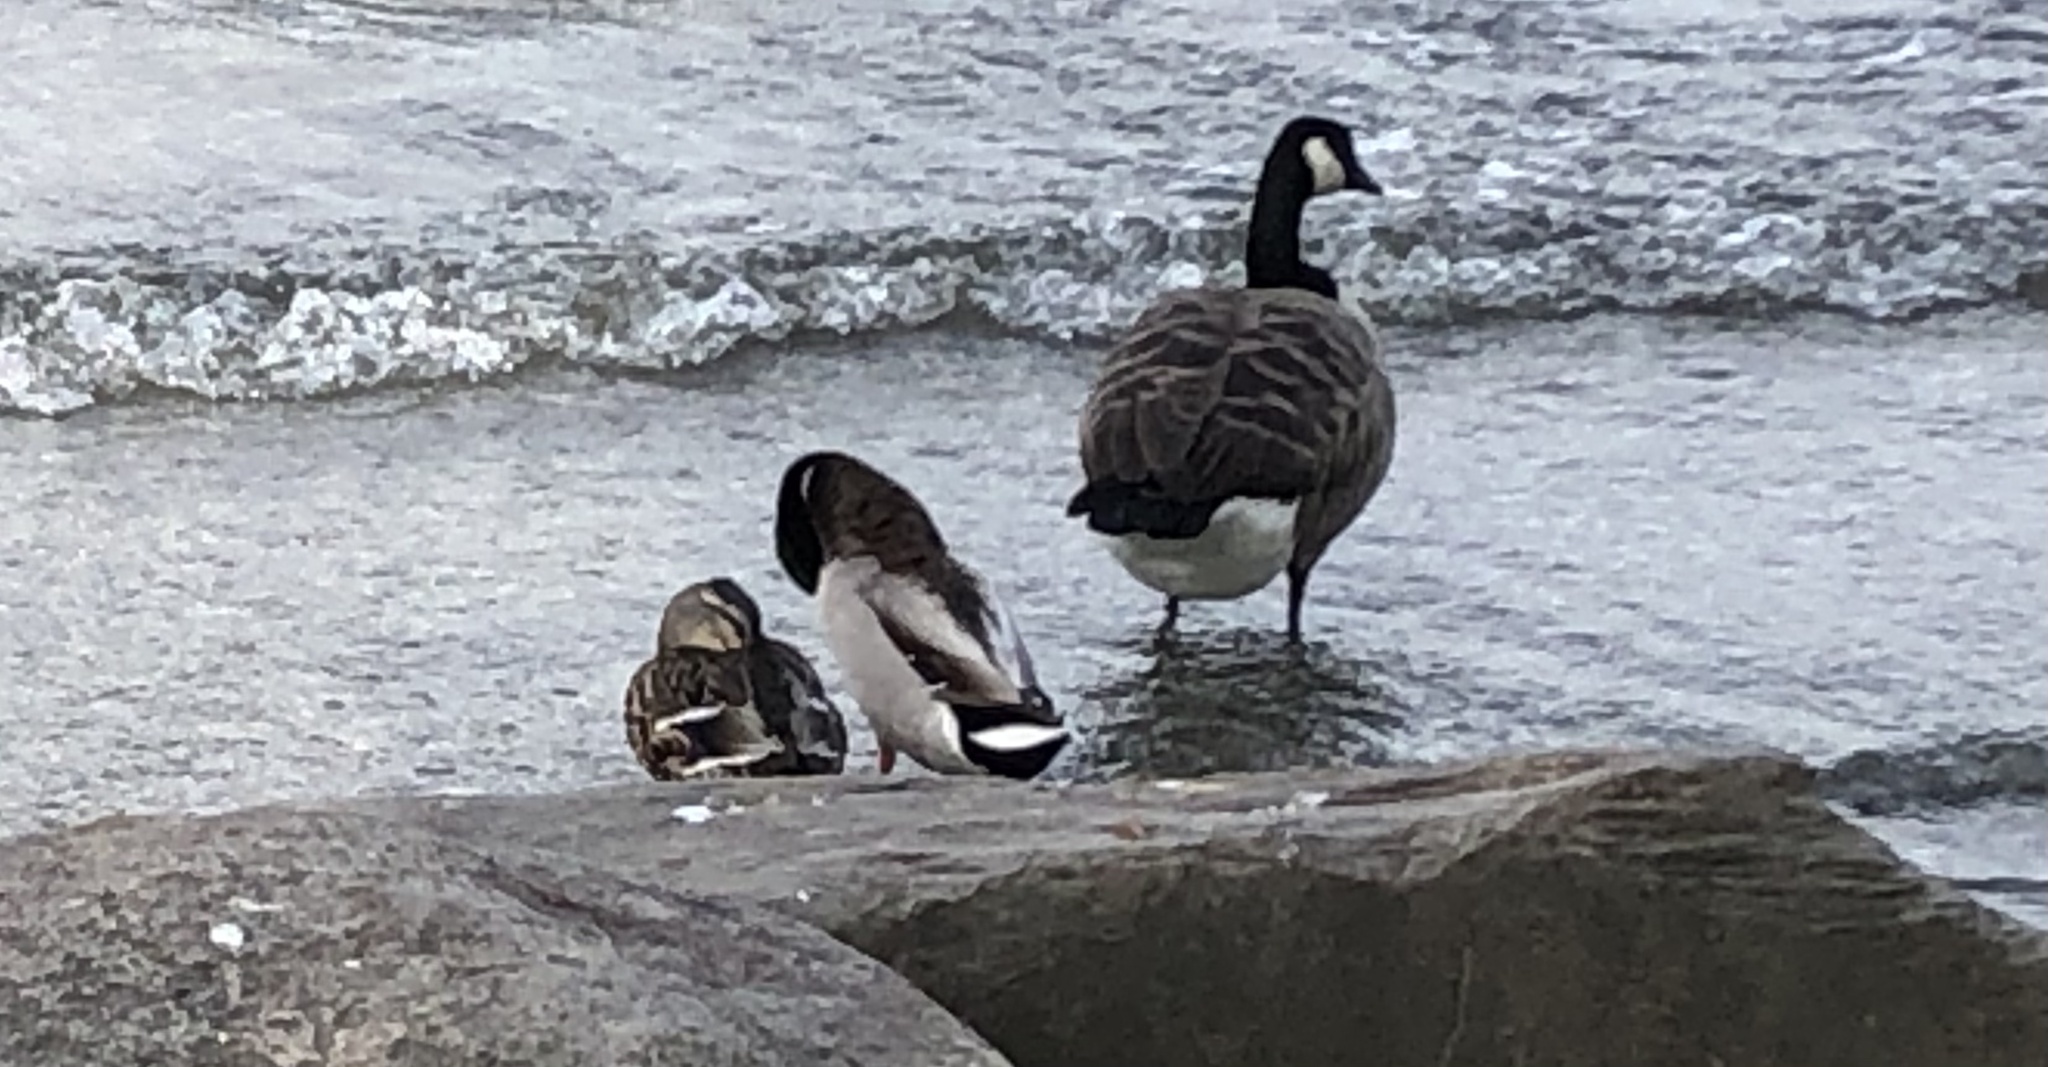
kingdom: Animalia
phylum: Chordata
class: Aves
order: Anseriformes
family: Anatidae
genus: Anas
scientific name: Anas platyrhynchos
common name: Mallard
